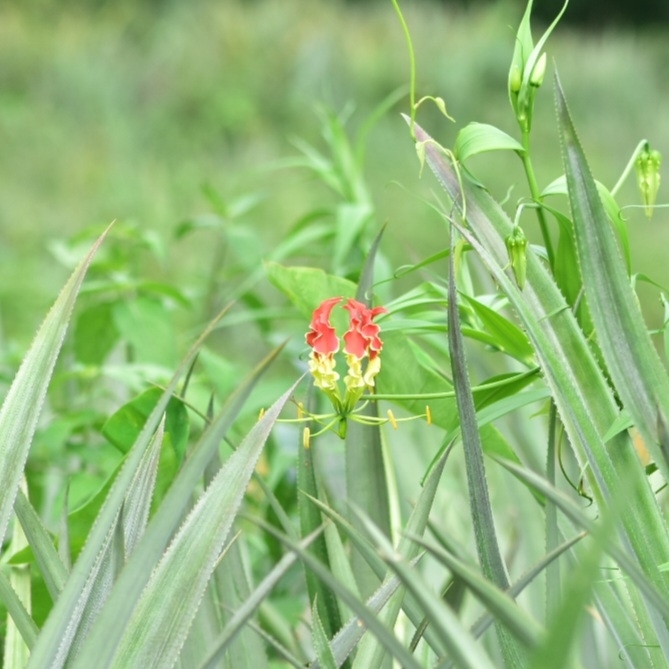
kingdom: Plantae
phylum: Tracheophyta
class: Liliopsida
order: Liliales
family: Colchicaceae
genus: Gloriosa
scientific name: Gloriosa superba
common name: Flame lily
